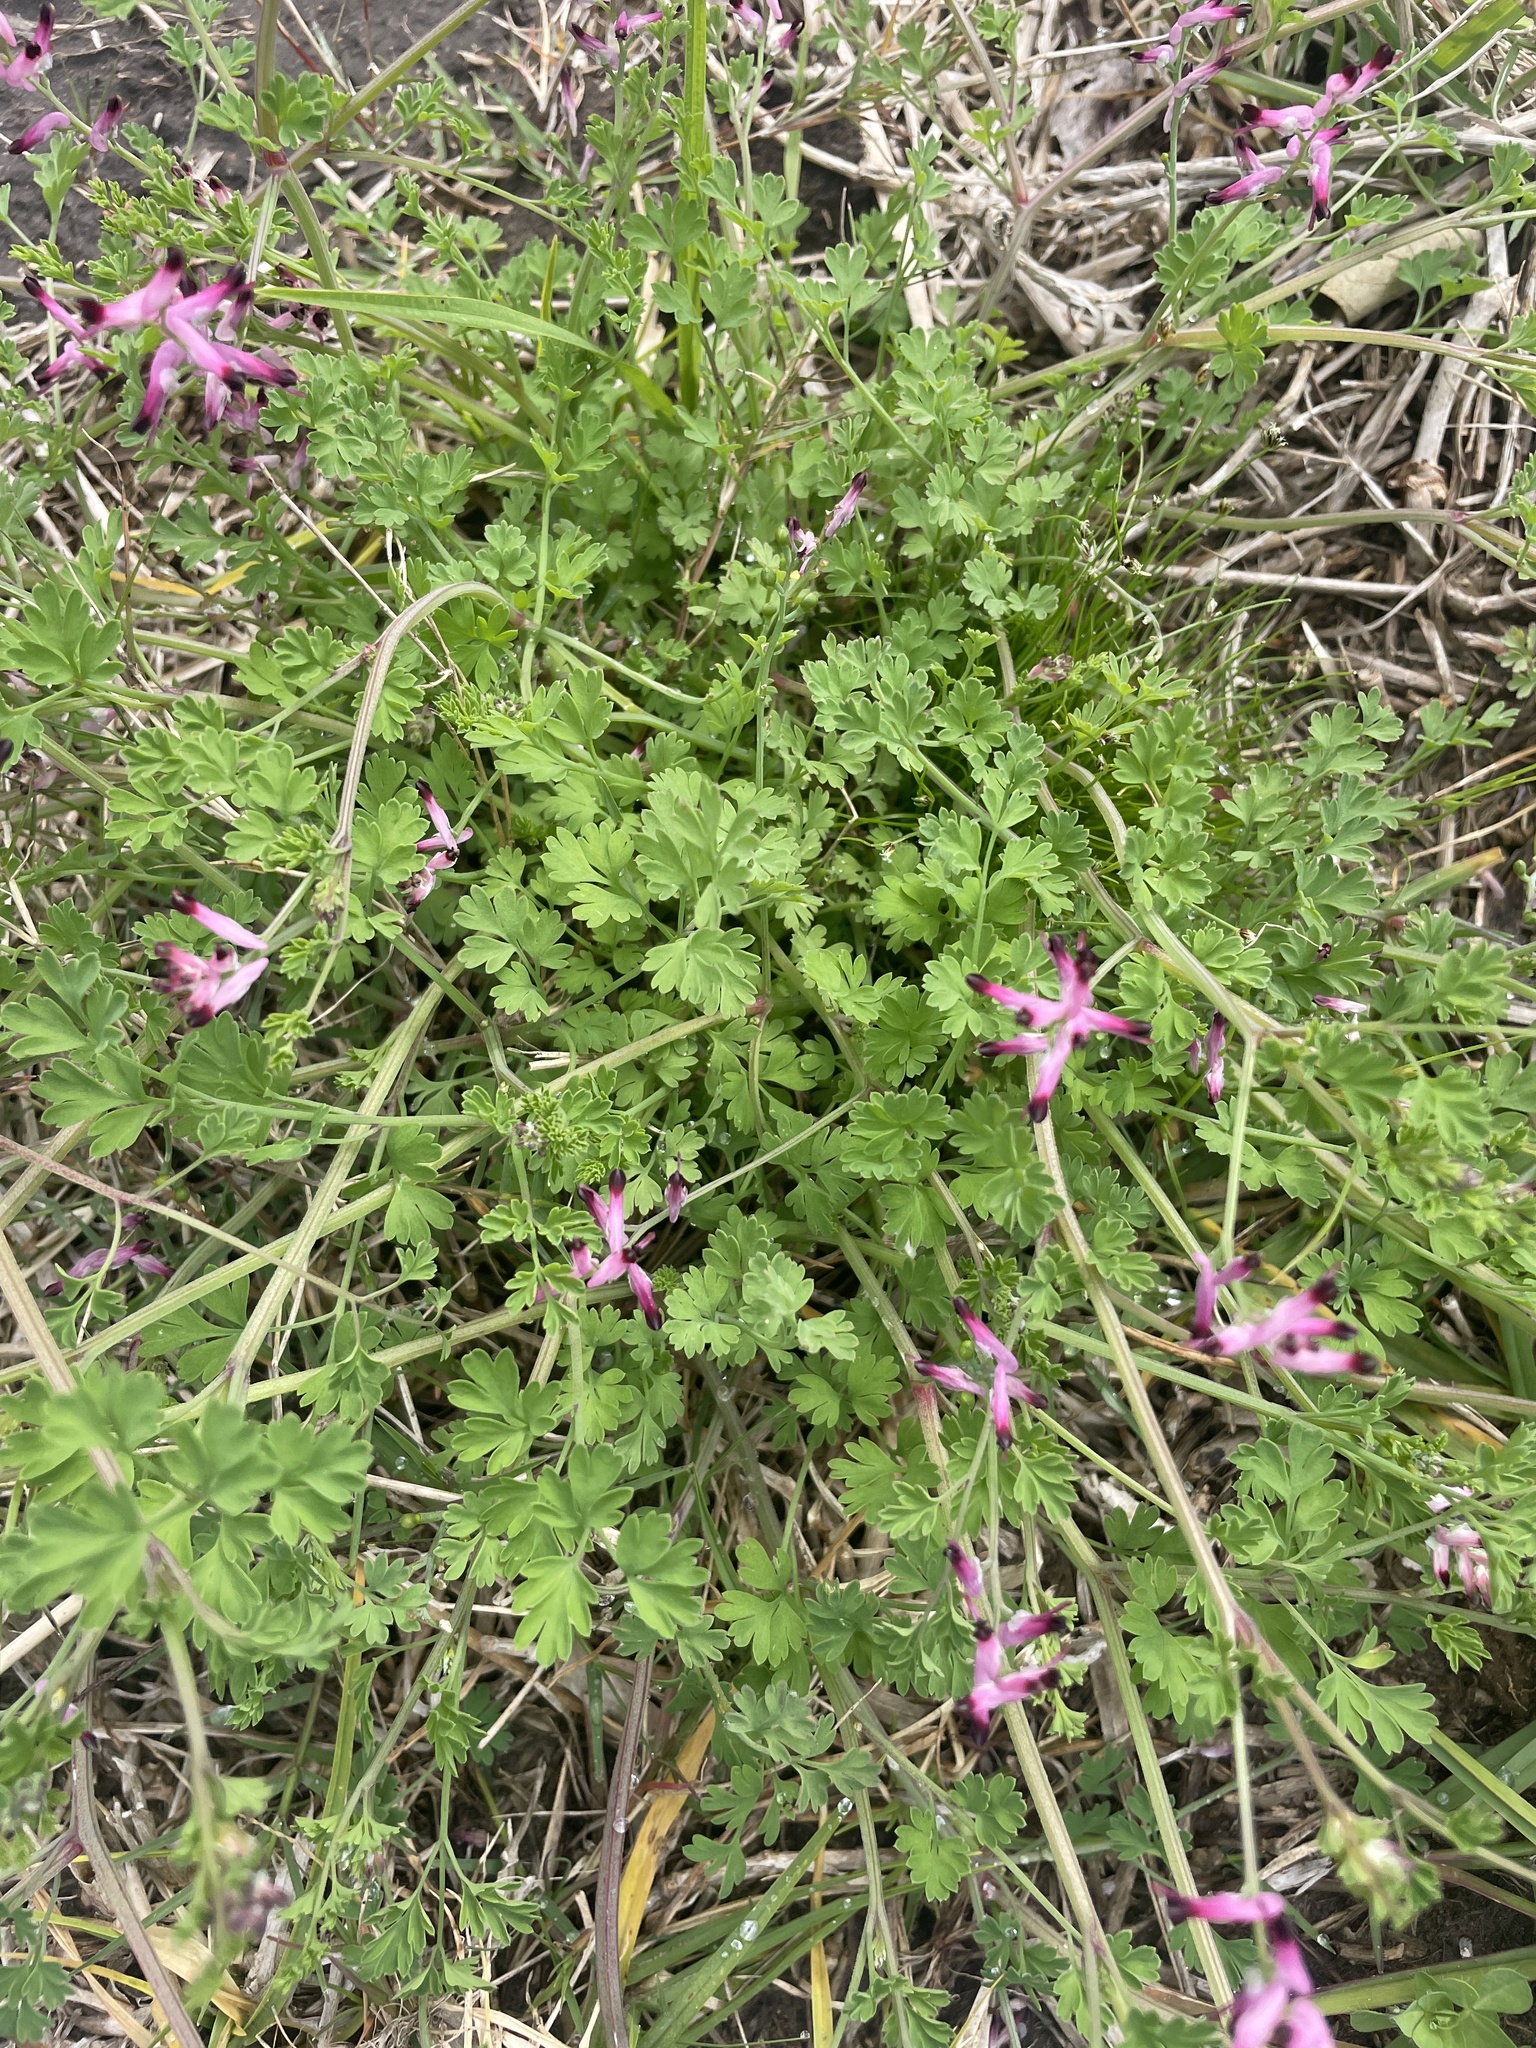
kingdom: Plantae
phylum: Tracheophyta
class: Magnoliopsida
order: Ranunculales
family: Papaveraceae
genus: Fumaria
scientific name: Fumaria muralis
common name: Common ramping-fumitory
